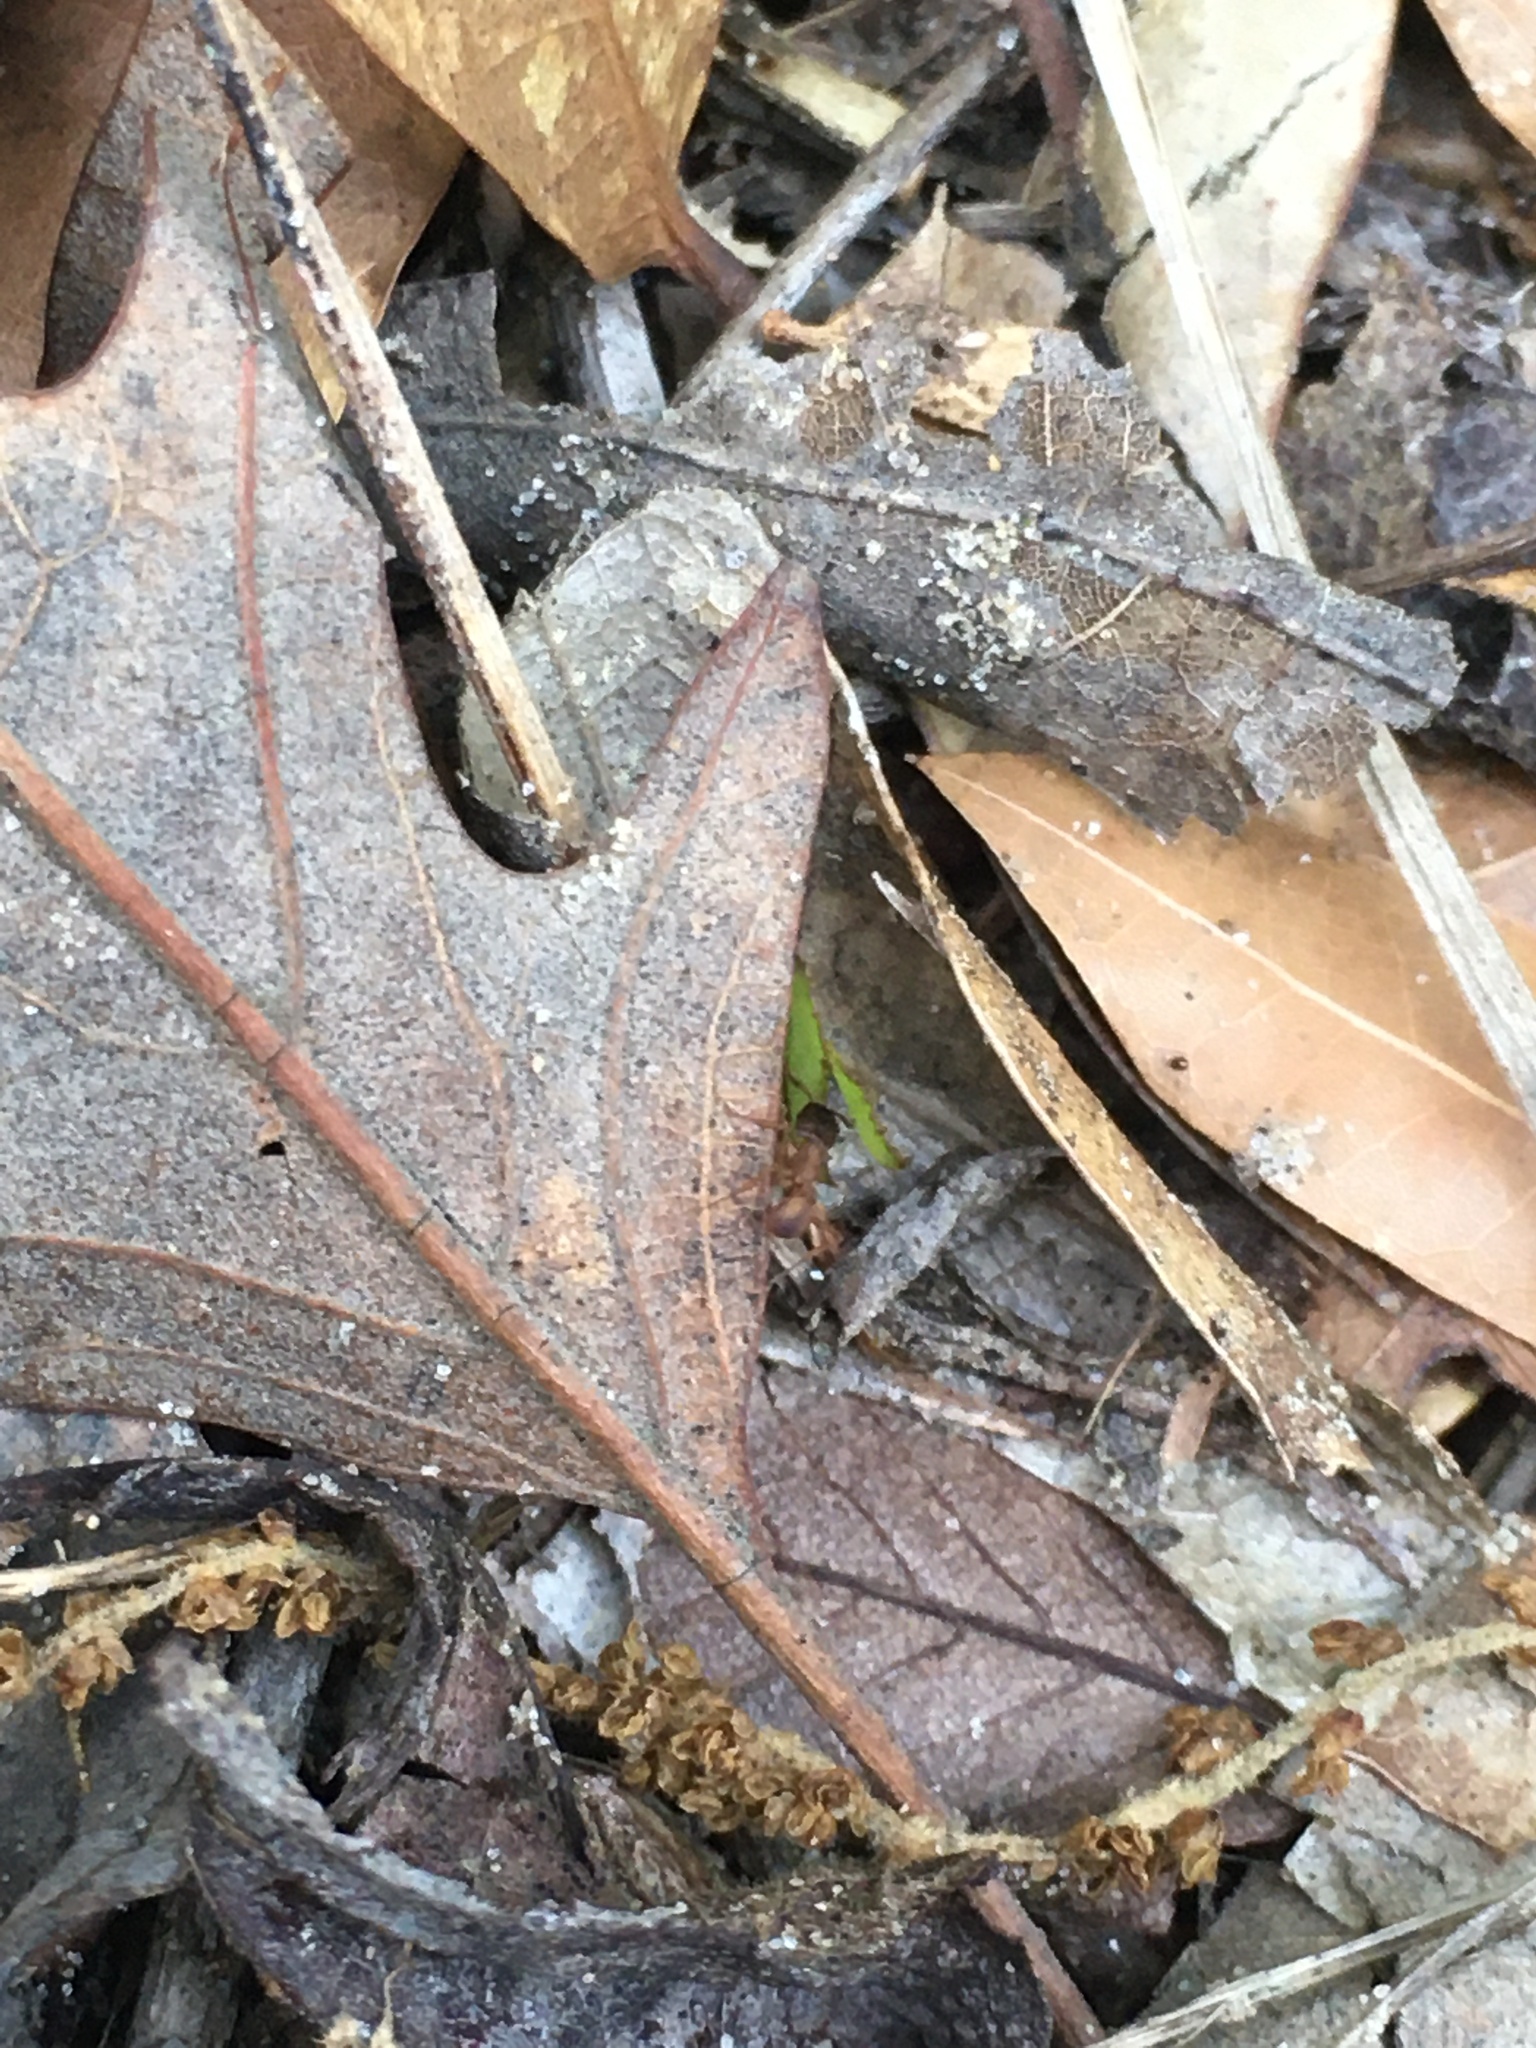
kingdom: Animalia
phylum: Arthropoda
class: Insecta
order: Hymenoptera
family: Formicidae
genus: Trachymyrmex
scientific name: Trachymyrmex septentrionalis
